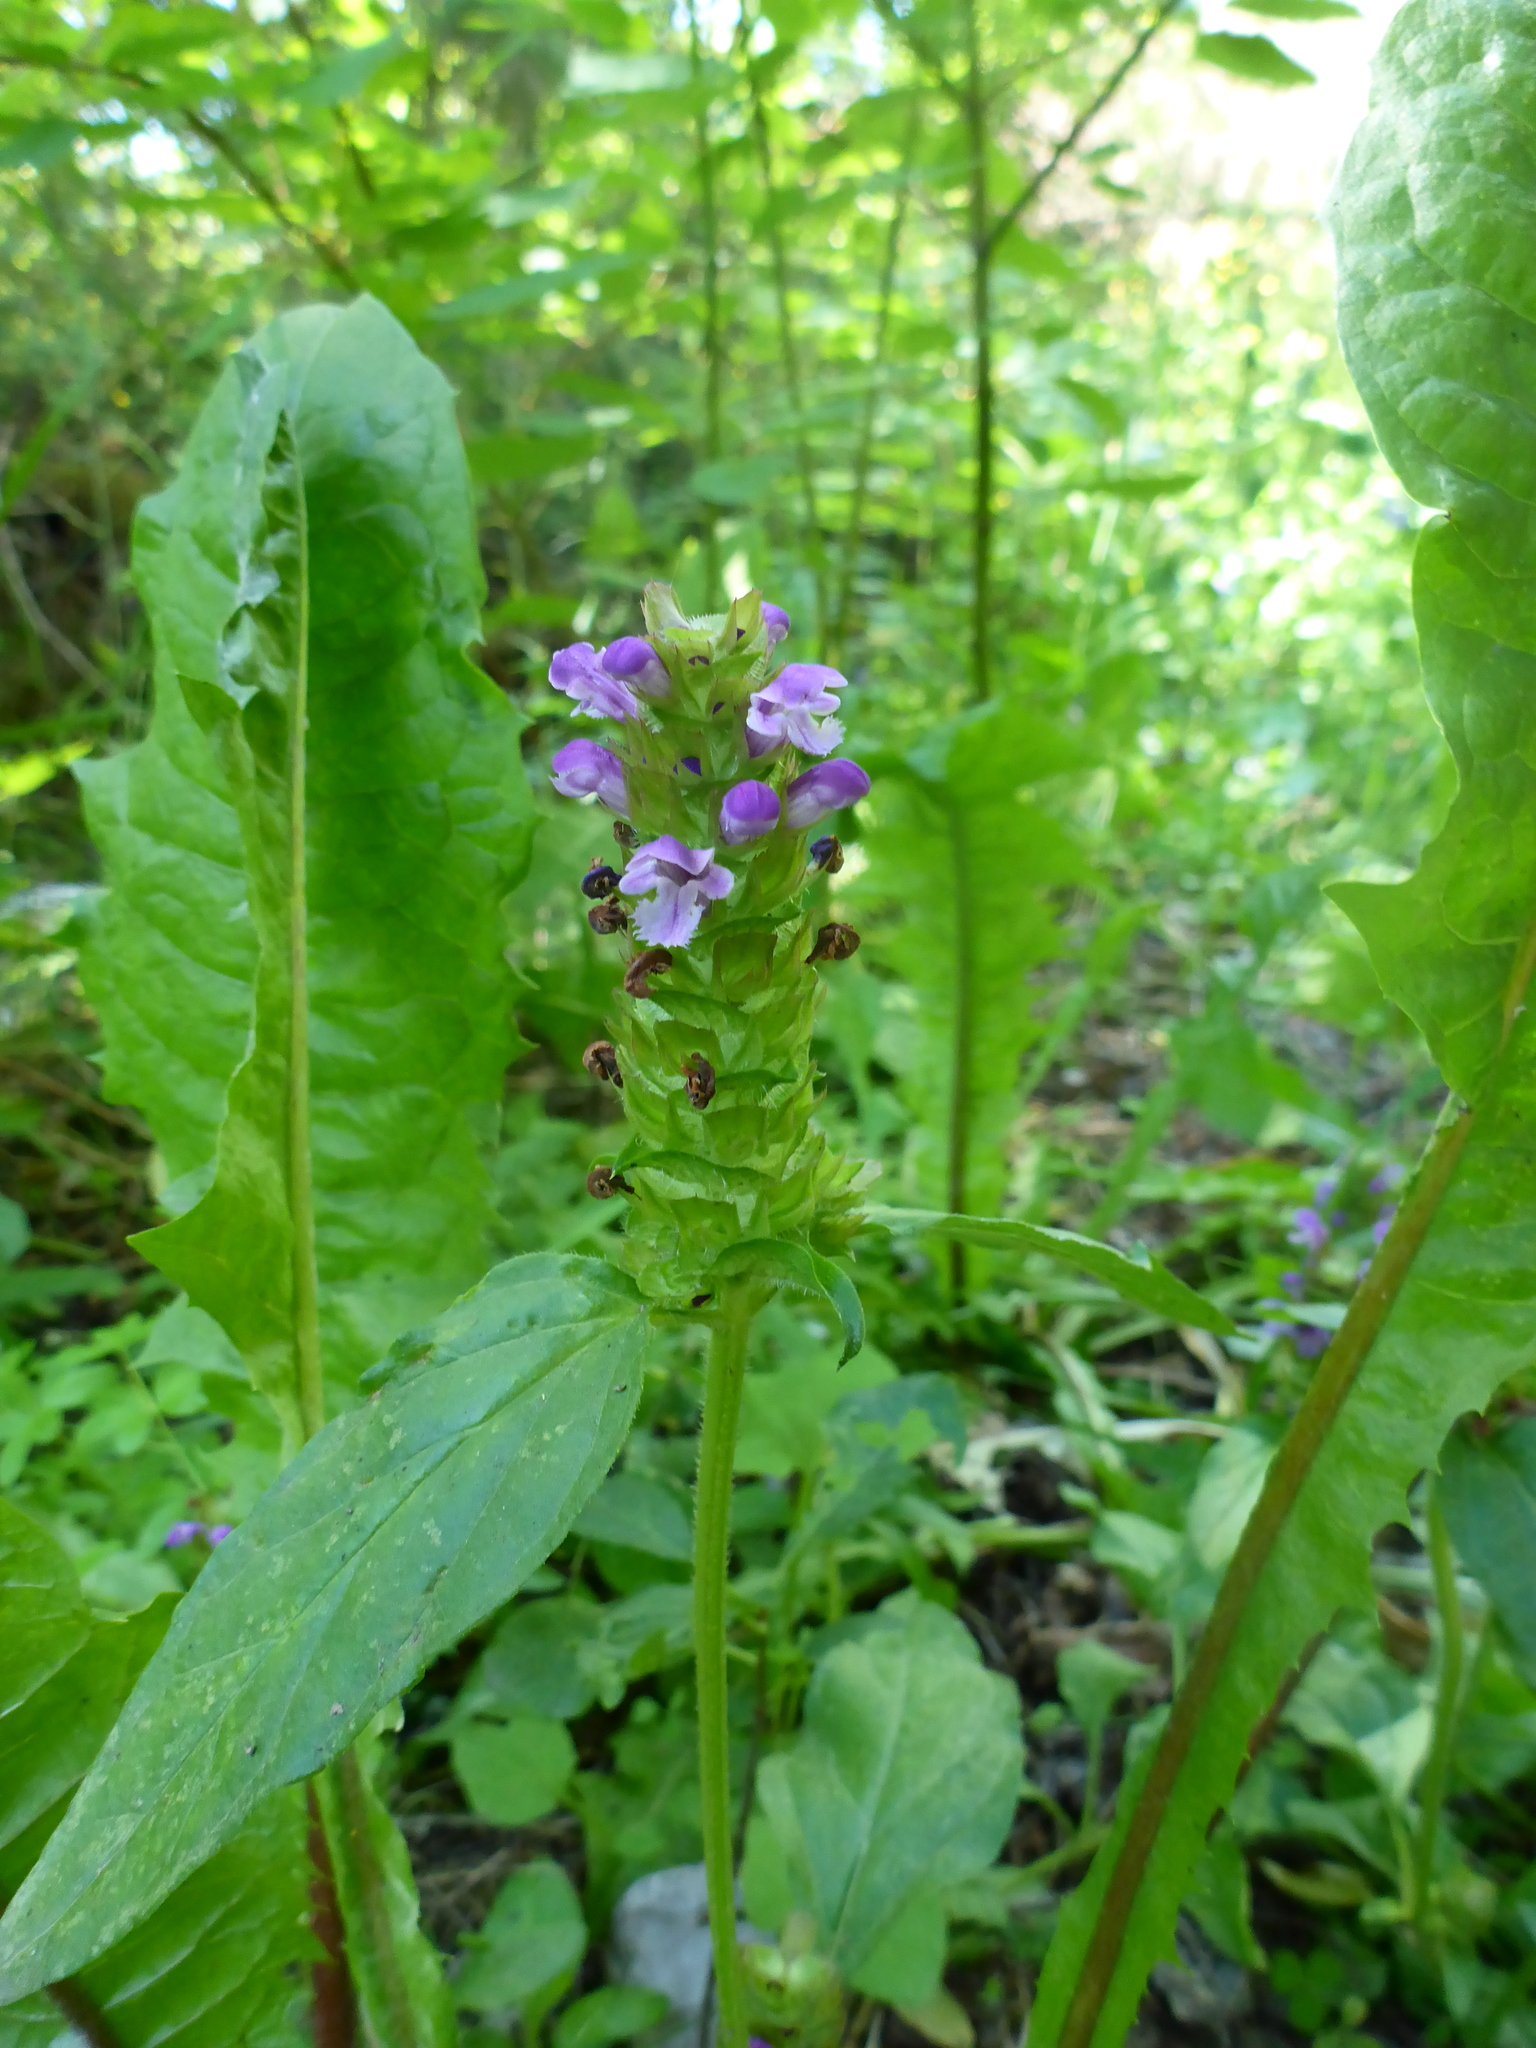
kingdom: Plantae
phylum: Tracheophyta
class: Magnoliopsida
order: Lamiales
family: Lamiaceae
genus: Prunella
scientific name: Prunella vulgaris
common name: Heal-all
